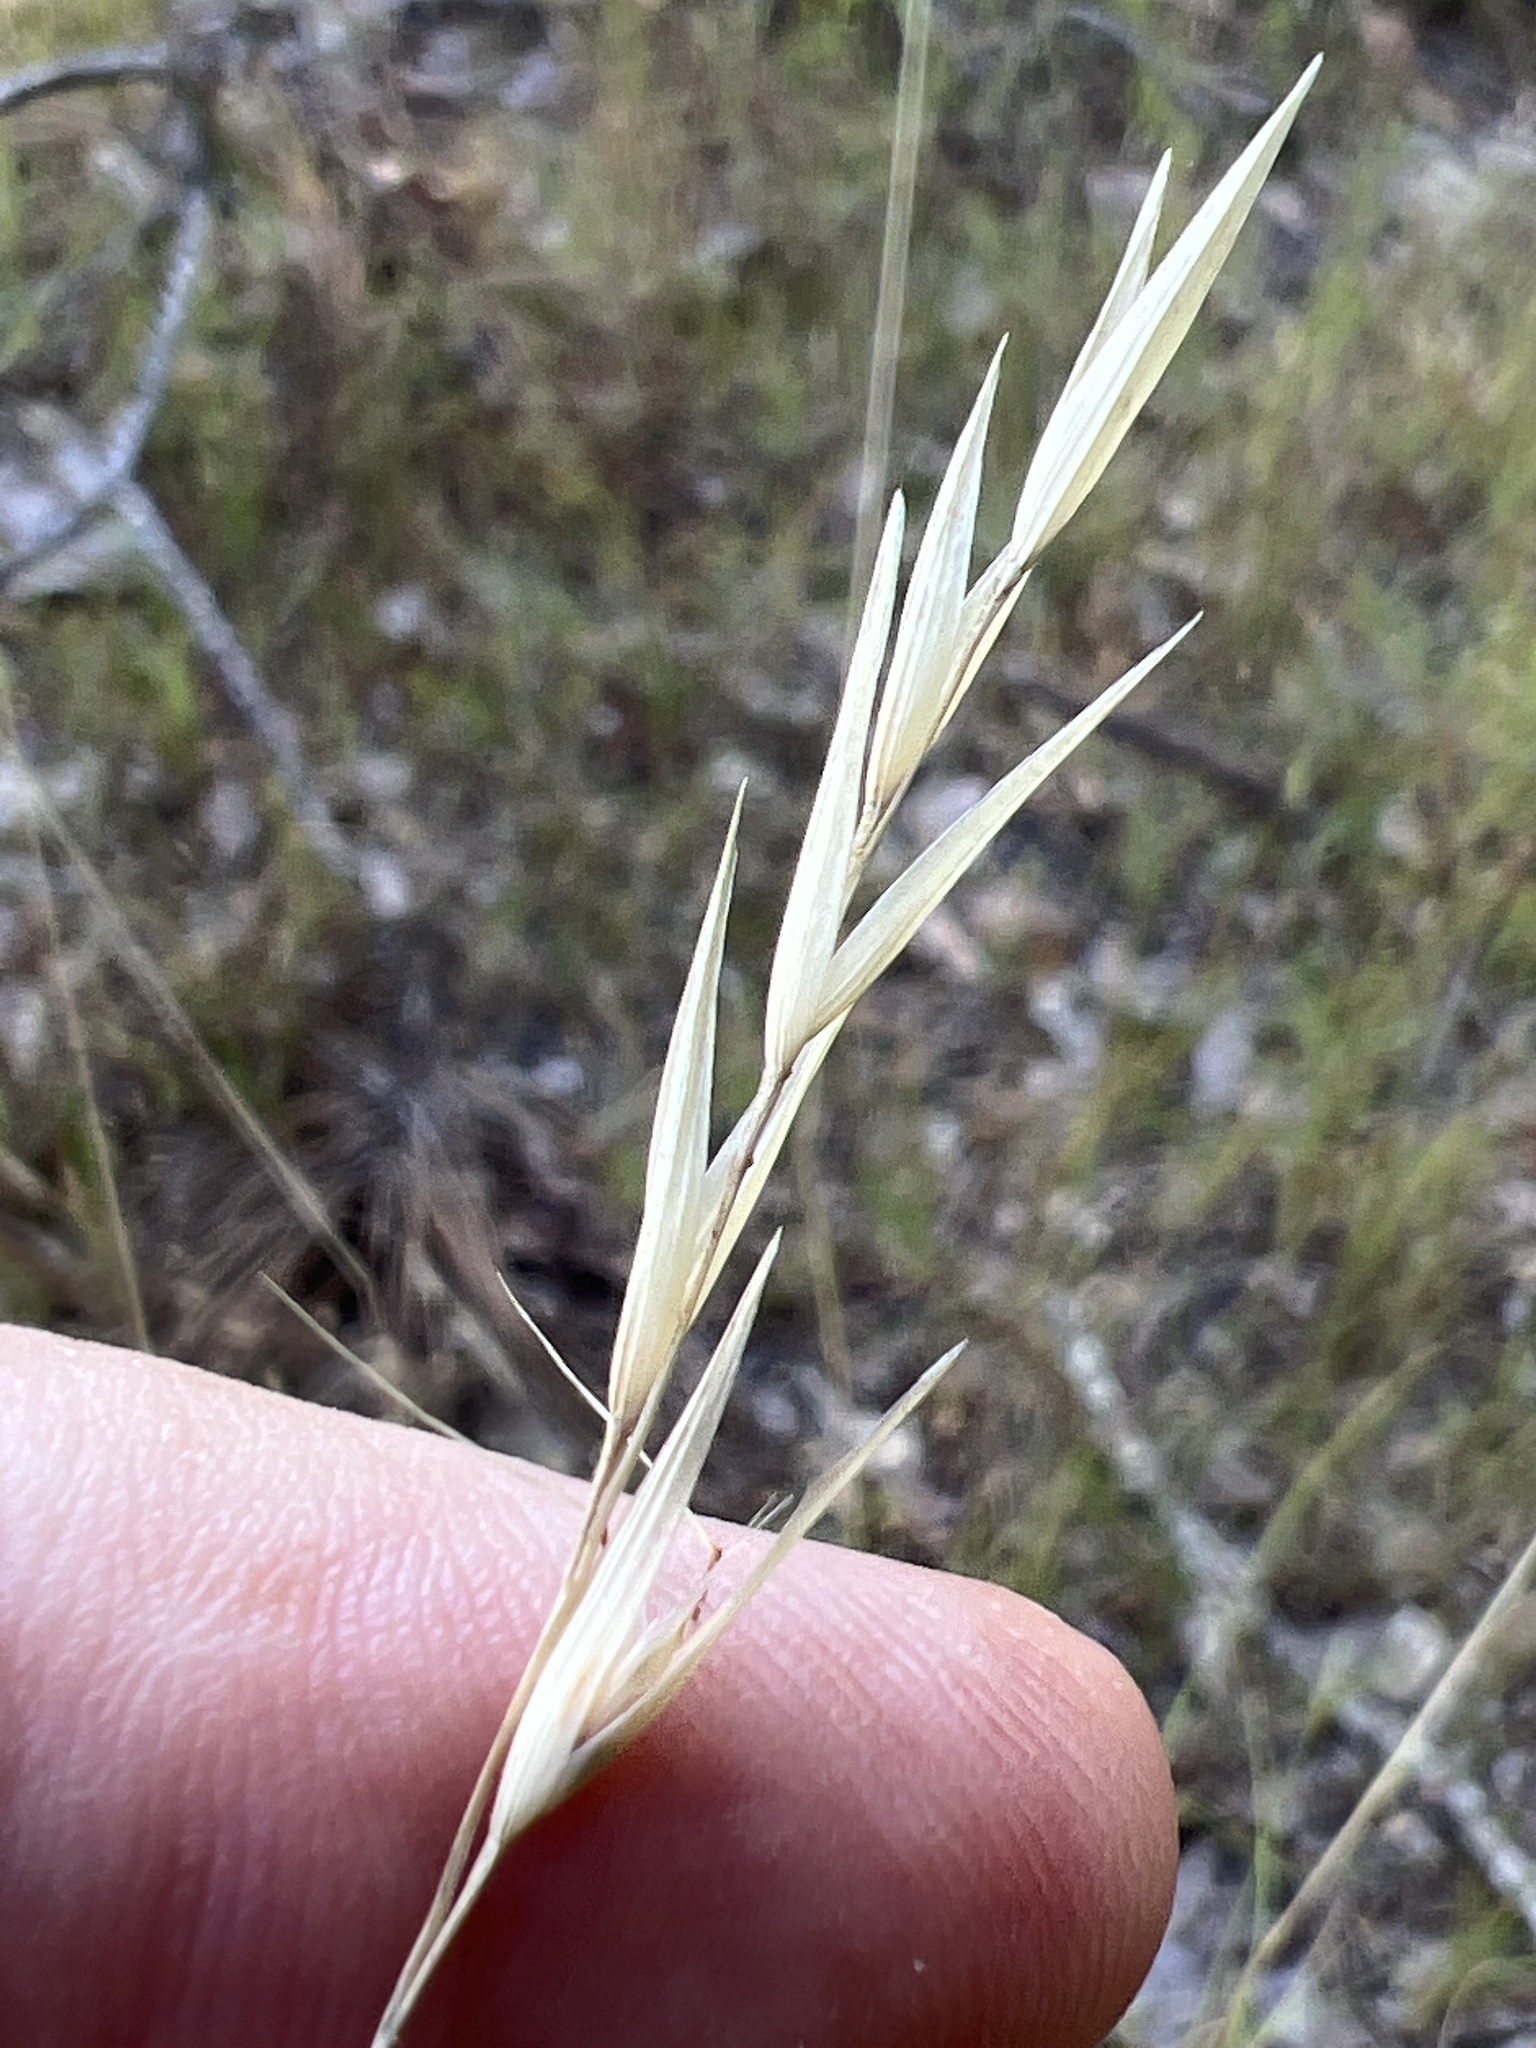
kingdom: Plantae
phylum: Tracheophyta
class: Liliopsida
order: Poales
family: Poaceae
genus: Danthonia
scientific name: Danthonia sericea
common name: Downy danthonia
